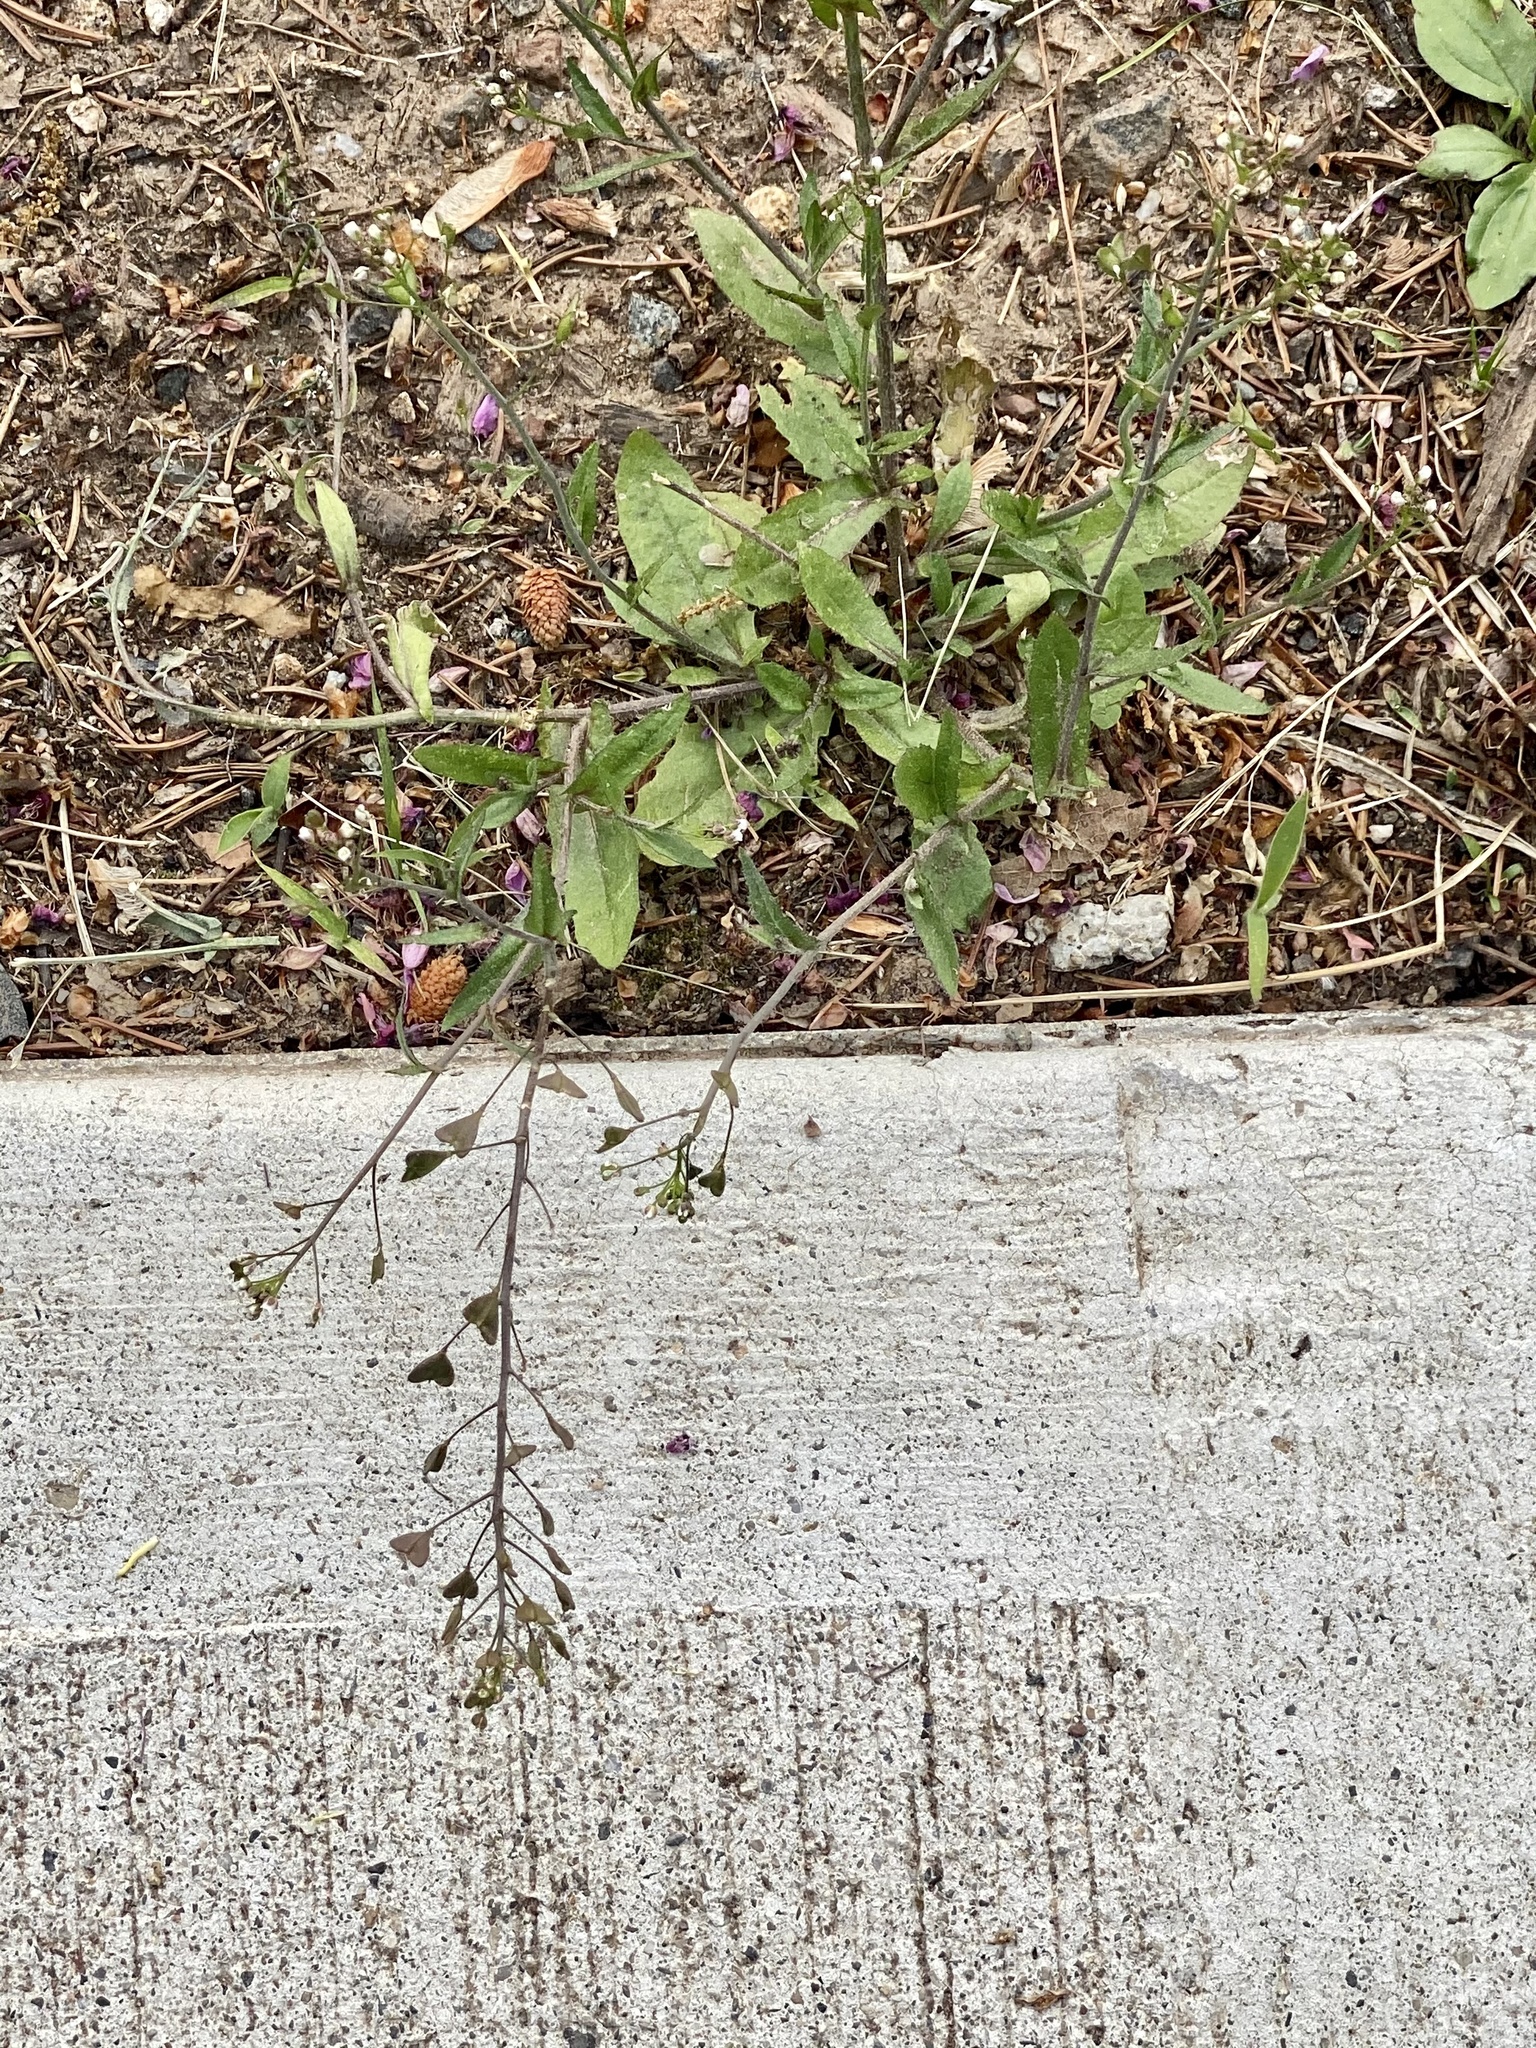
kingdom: Plantae
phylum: Tracheophyta
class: Magnoliopsida
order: Brassicales
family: Brassicaceae
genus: Capsella
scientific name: Capsella bursa-pastoris
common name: Shepherd's purse
